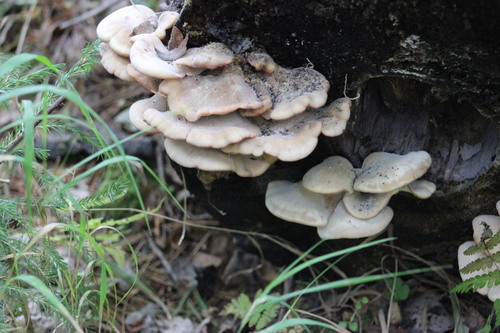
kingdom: Fungi
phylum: Basidiomycota
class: Agaricomycetes
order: Russulales
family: Auriscalpiaceae
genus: Lentinellus
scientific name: Lentinellus
